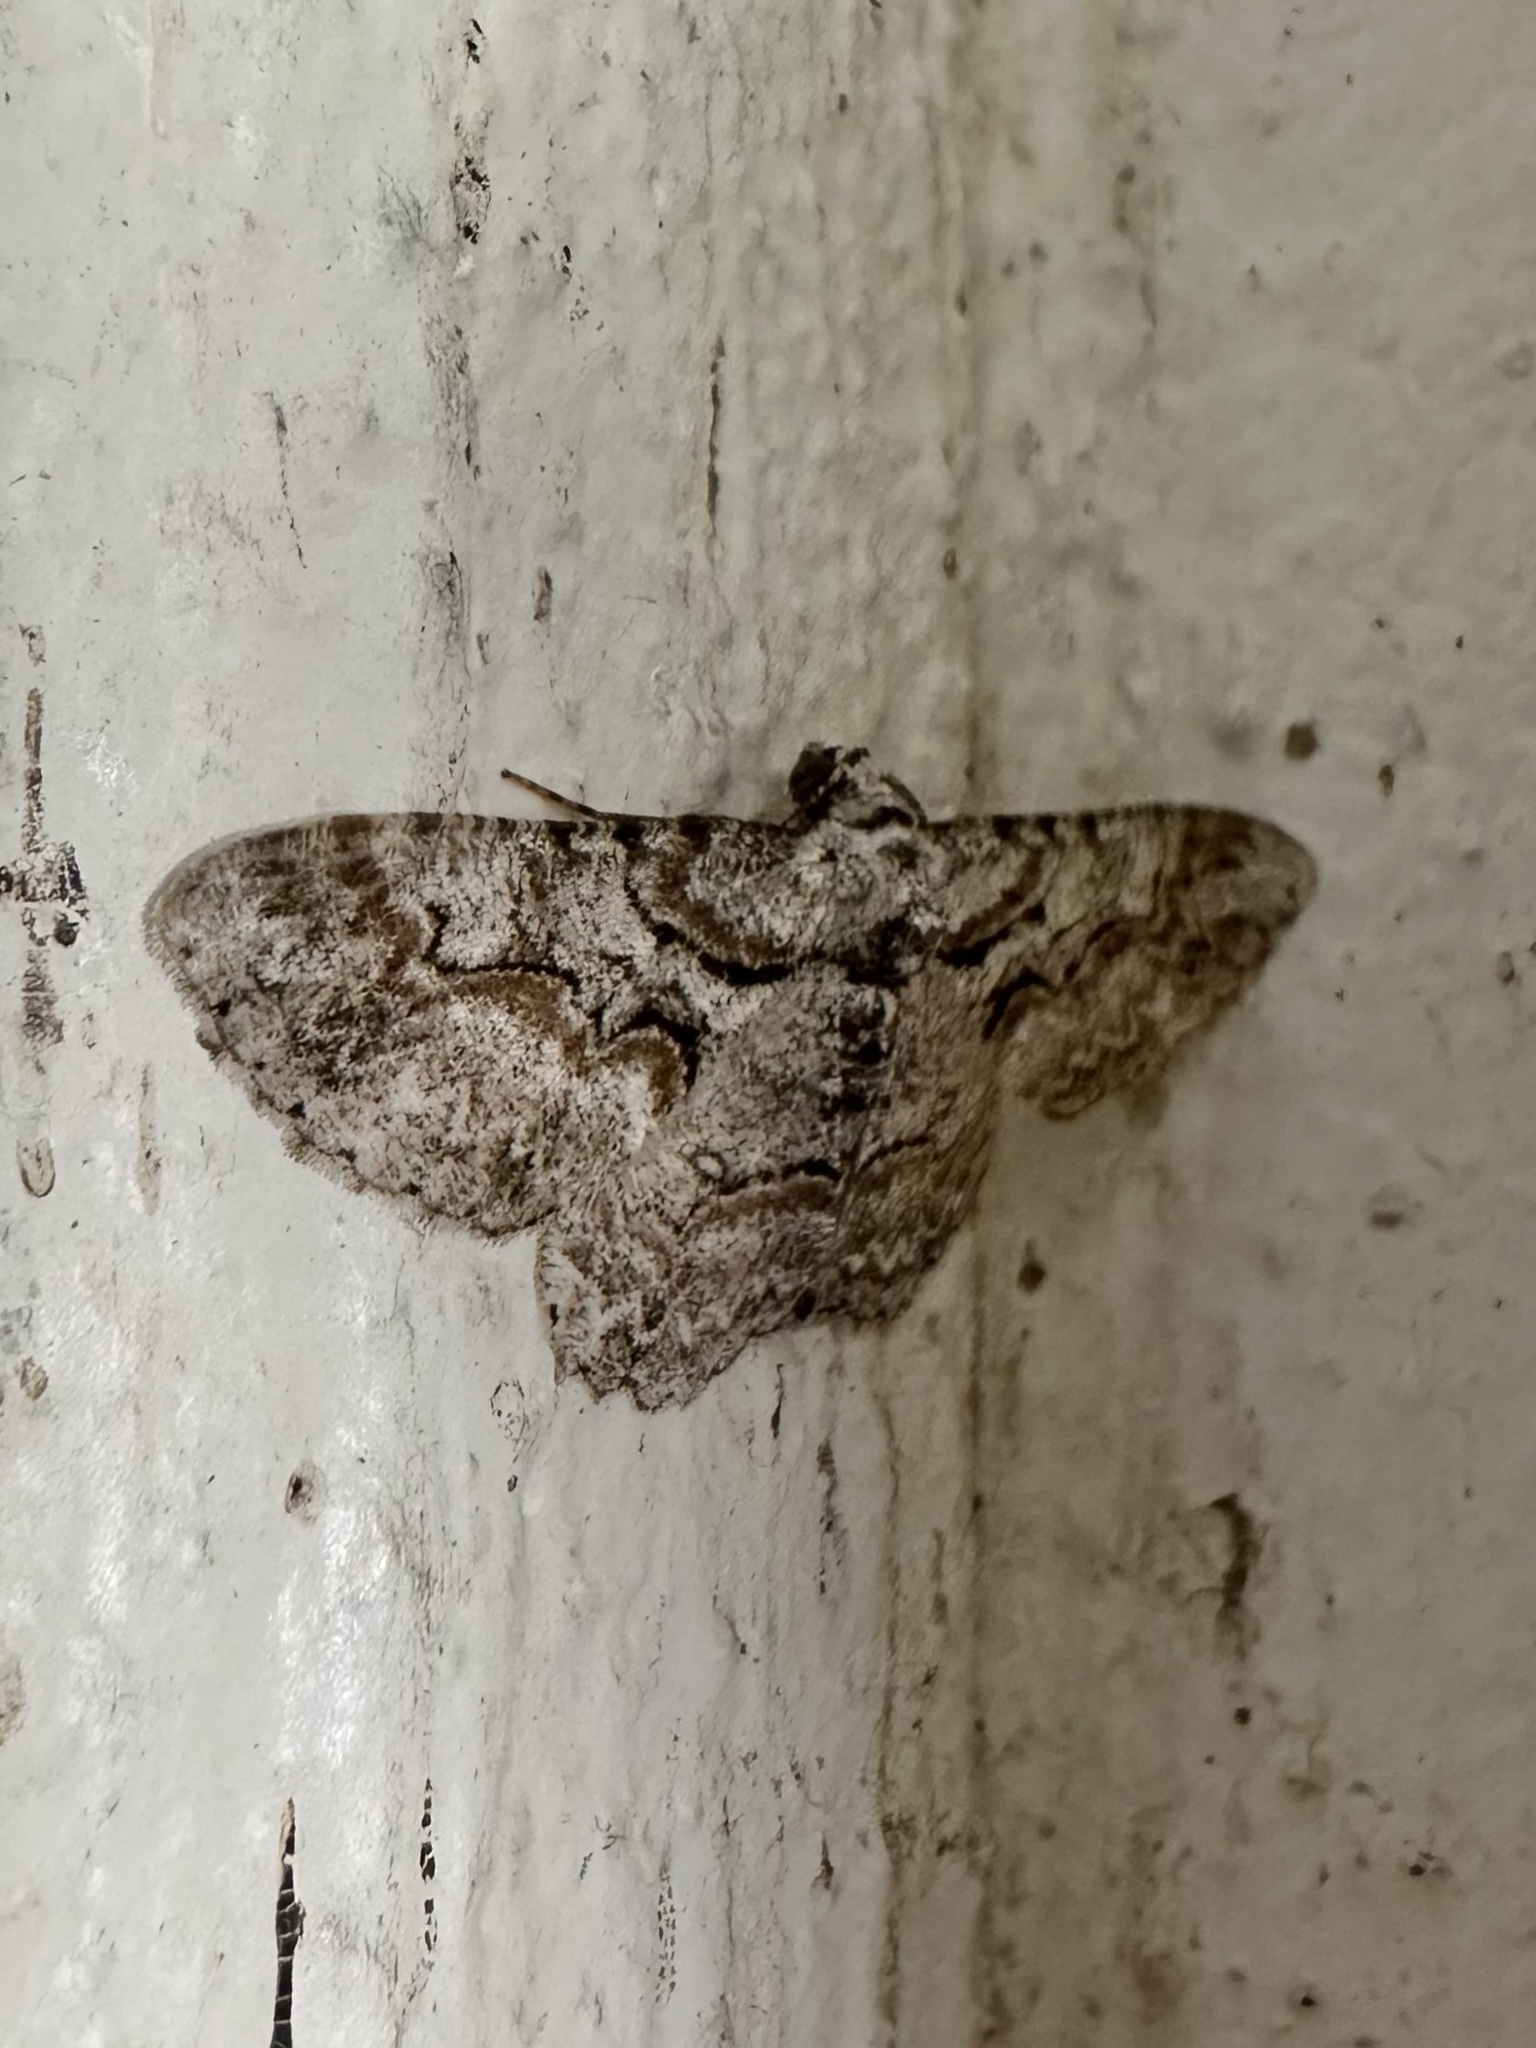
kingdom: Animalia
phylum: Arthropoda
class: Insecta
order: Lepidoptera
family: Geometridae
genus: Iridopsis
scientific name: Iridopsis defectaria
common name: Brown-shaded gray
